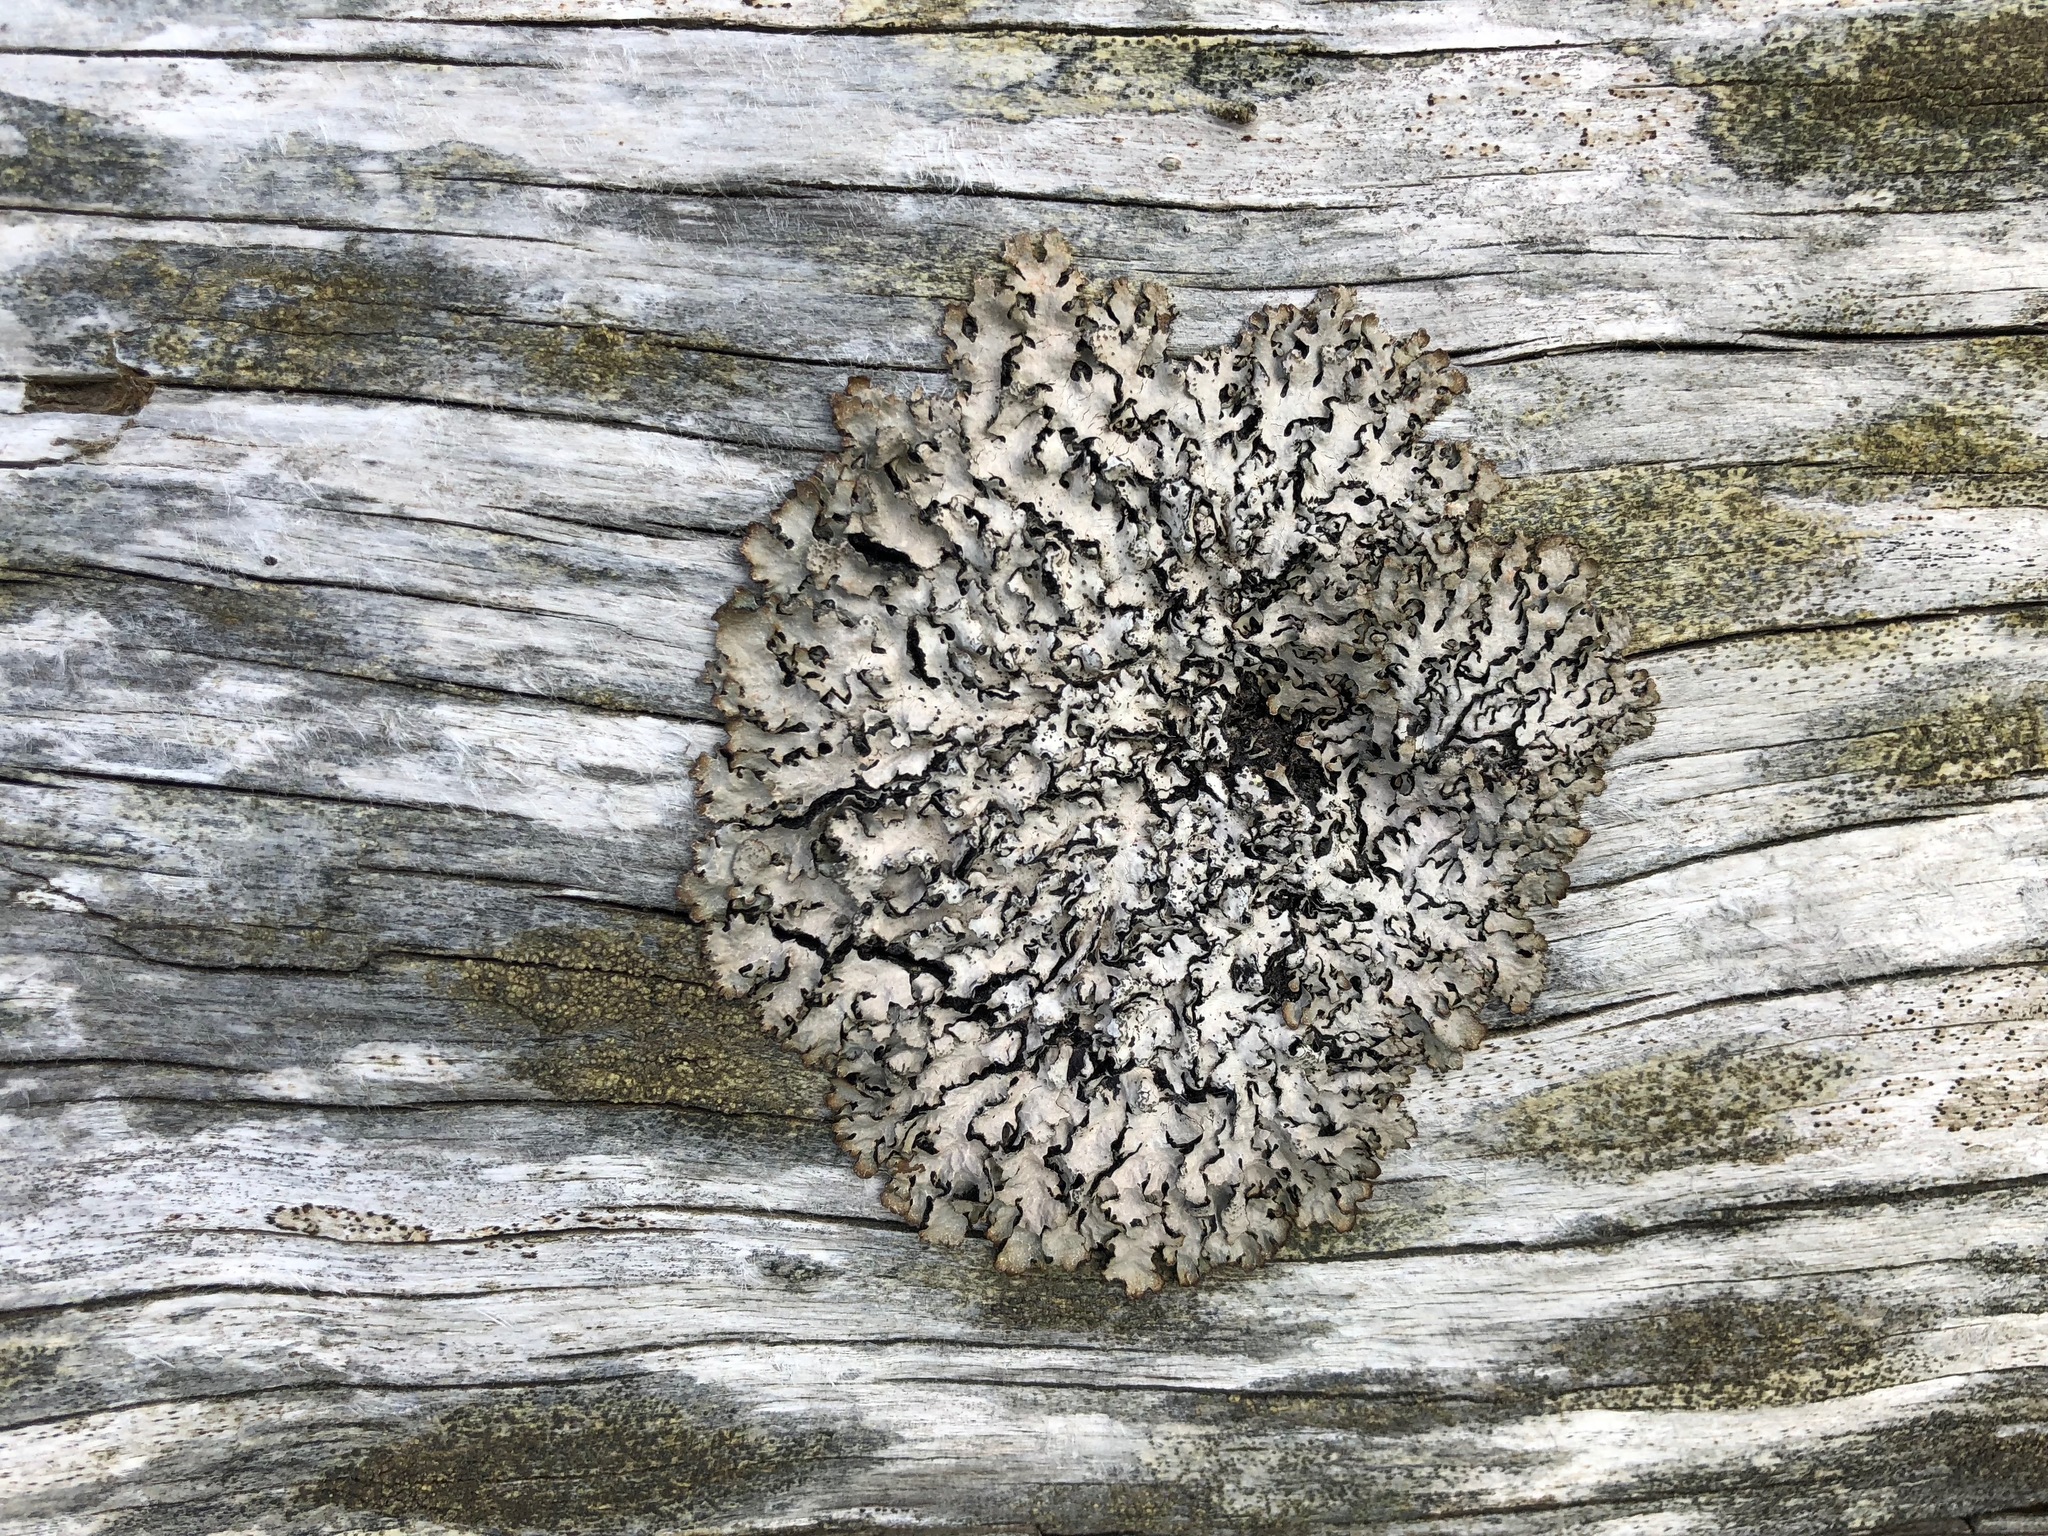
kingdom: Fungi
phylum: Ascomycota
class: Lecanoromycetes
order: Lecanorales
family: Parmeliaceae
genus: Parmelia
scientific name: Parmelia sulcata
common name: Netted shield lichen
